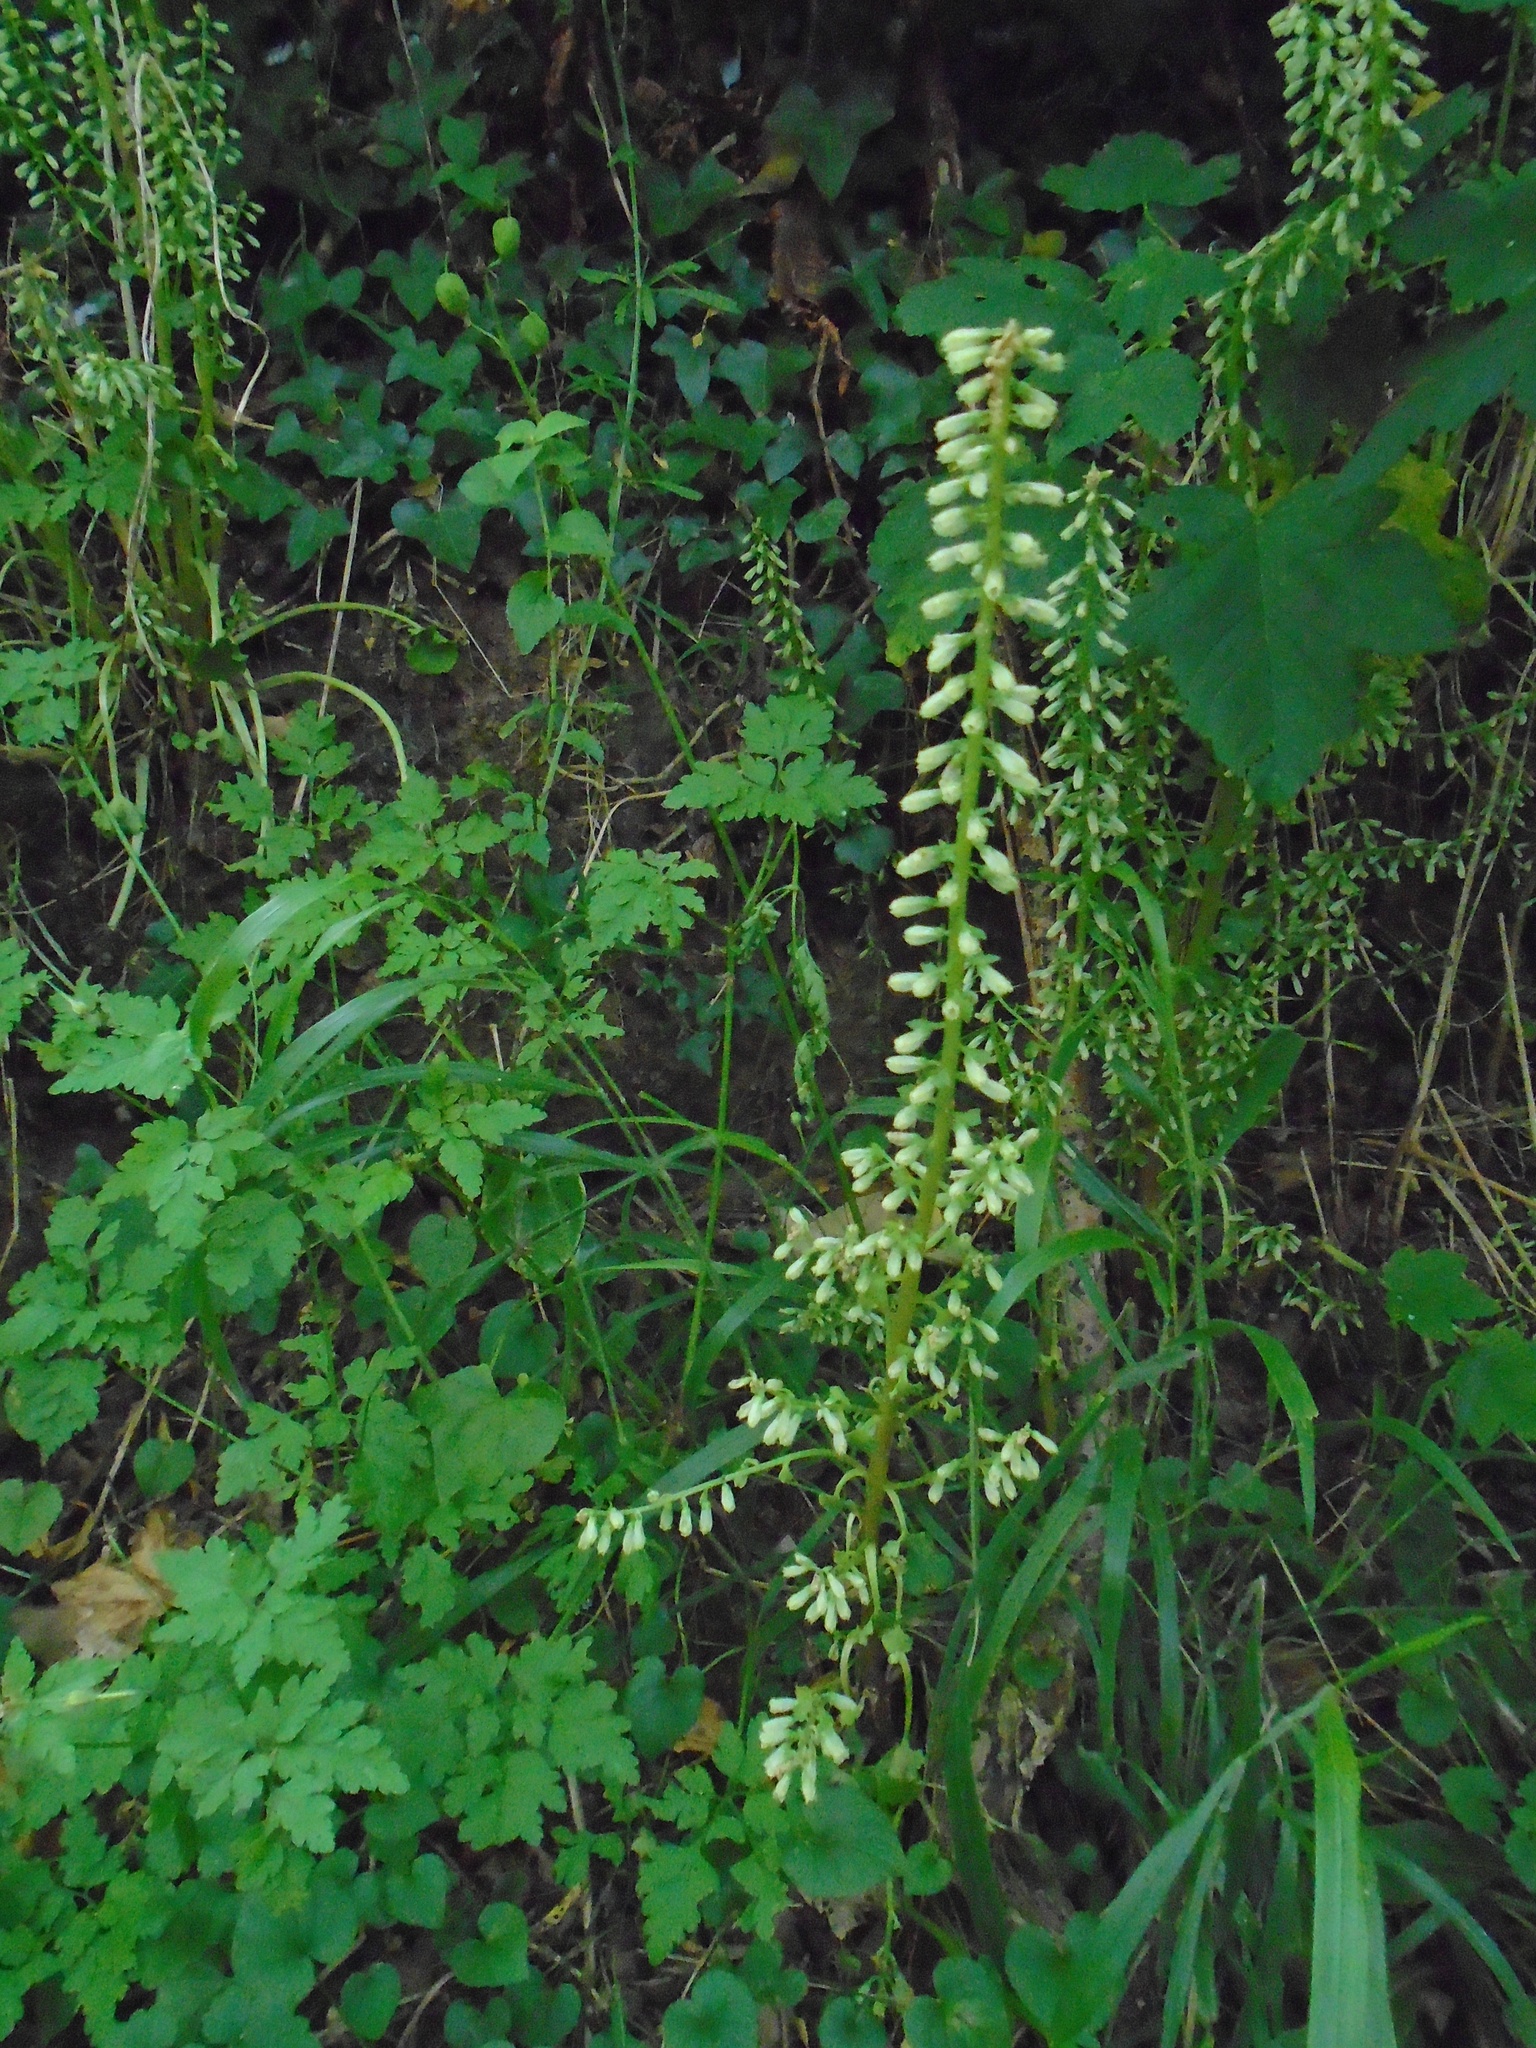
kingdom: Plantae
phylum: Tracheophyta
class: Magnoliopsida
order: Saxifragales
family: Crassulaceae
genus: Umbilicus
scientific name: Umbilicus rupestris
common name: Navelwort
